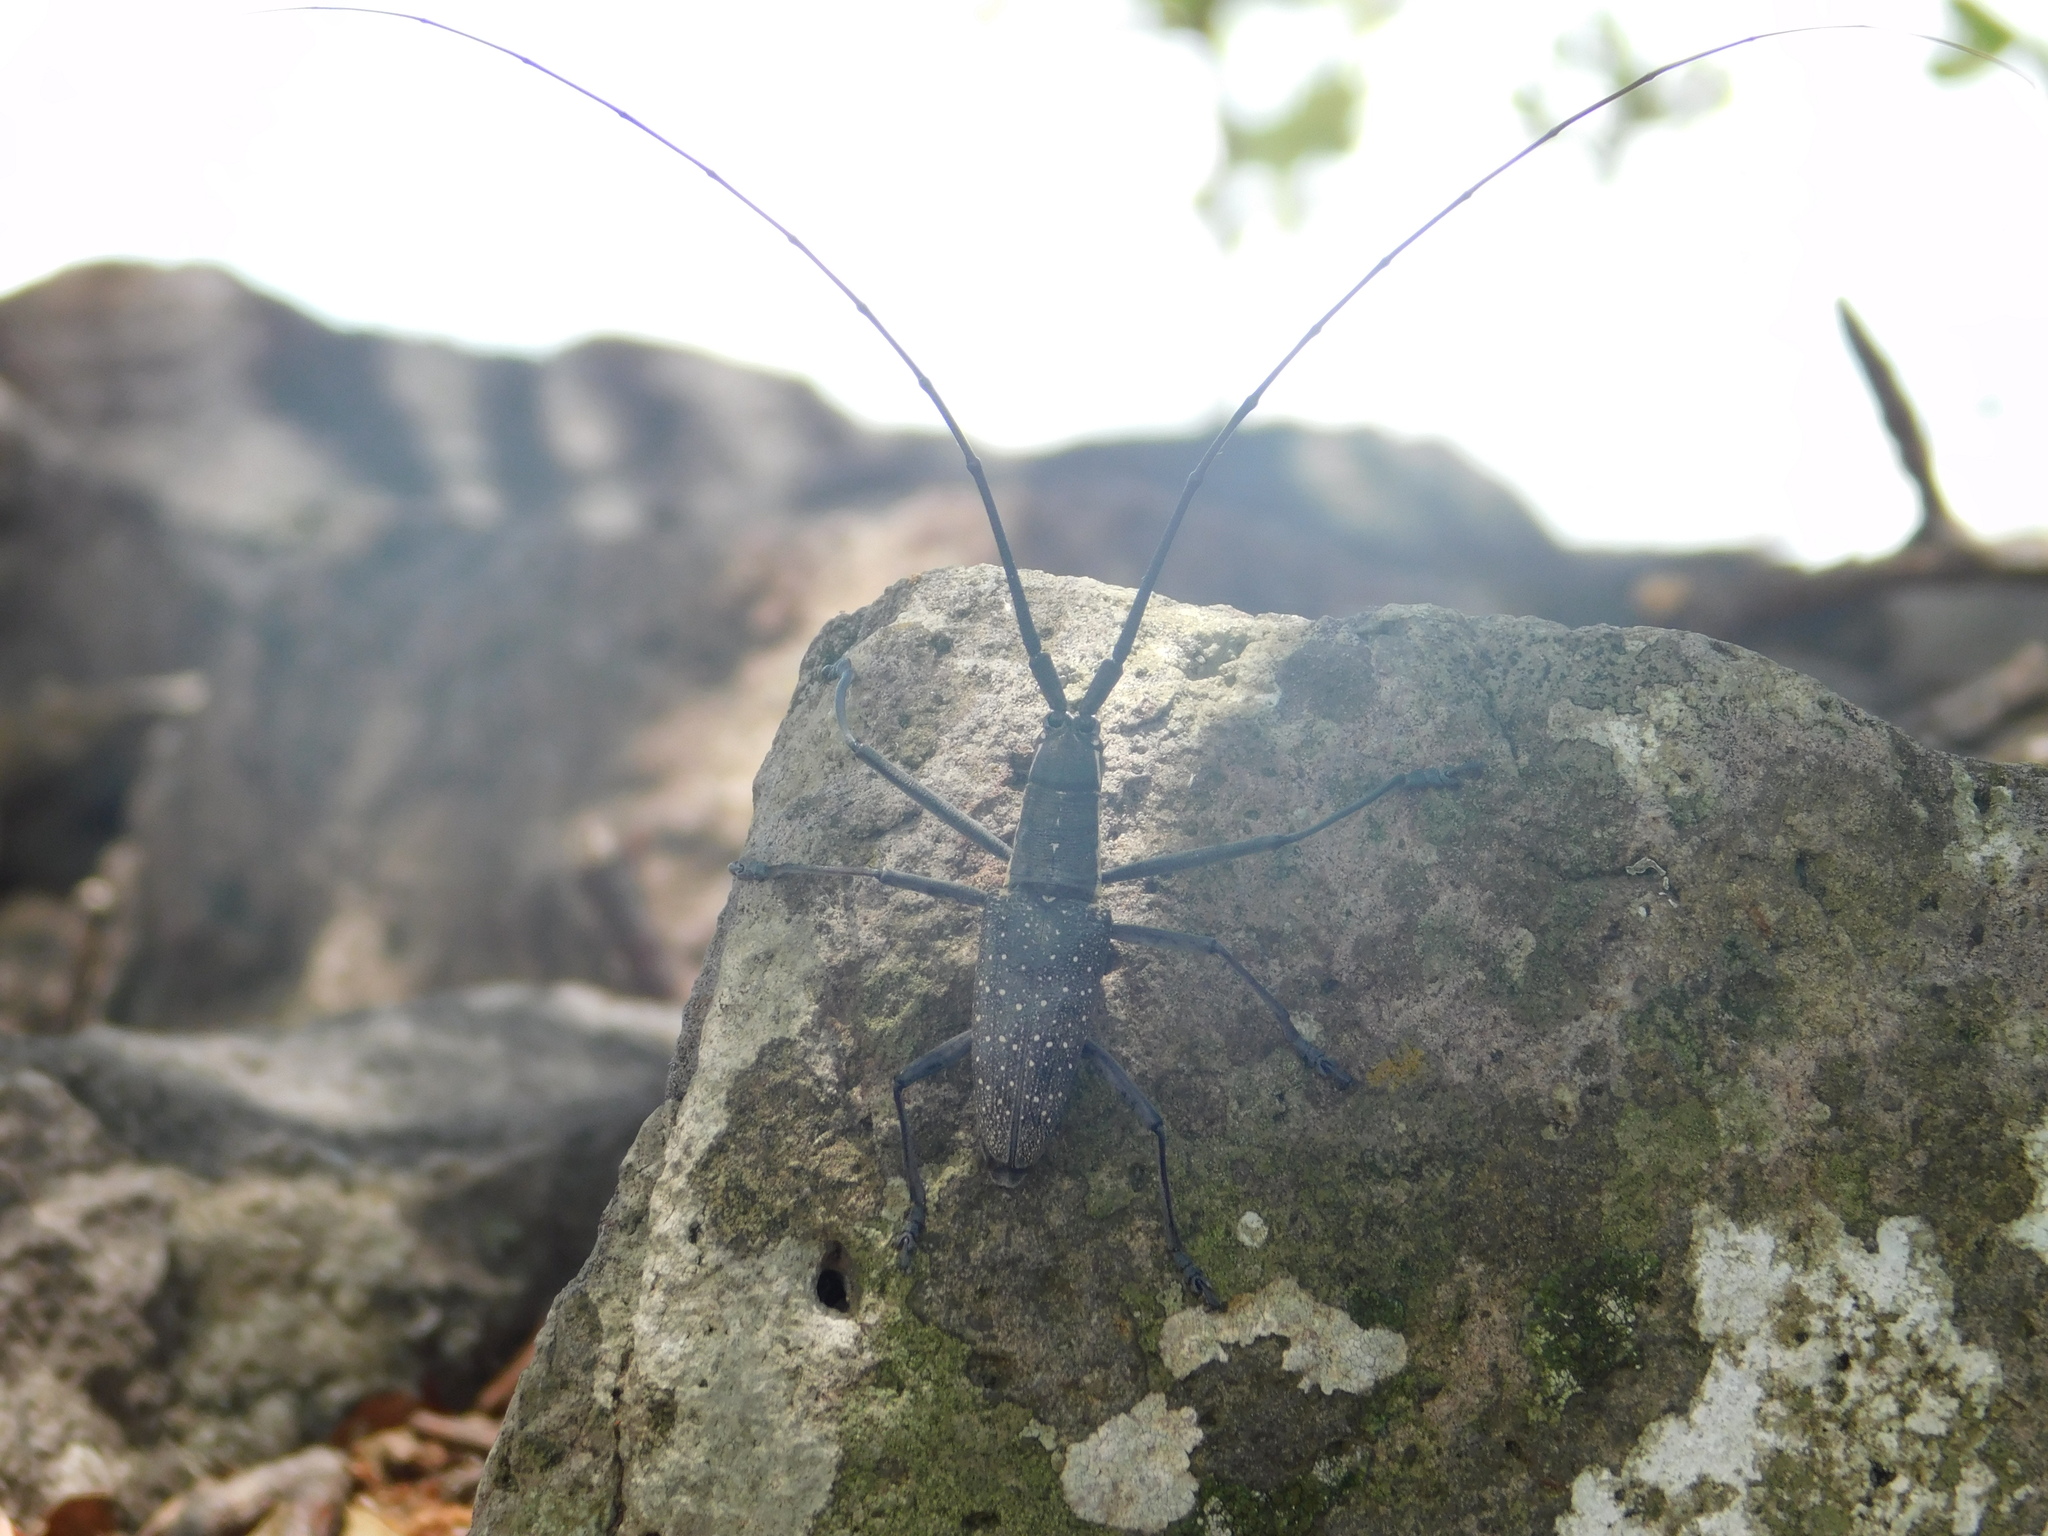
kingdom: Animalia
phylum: Arthropoda
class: Insecta
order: Coleoptera
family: Cerambycidae
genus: Chyptodes
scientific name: Chyptodes dejeanii
